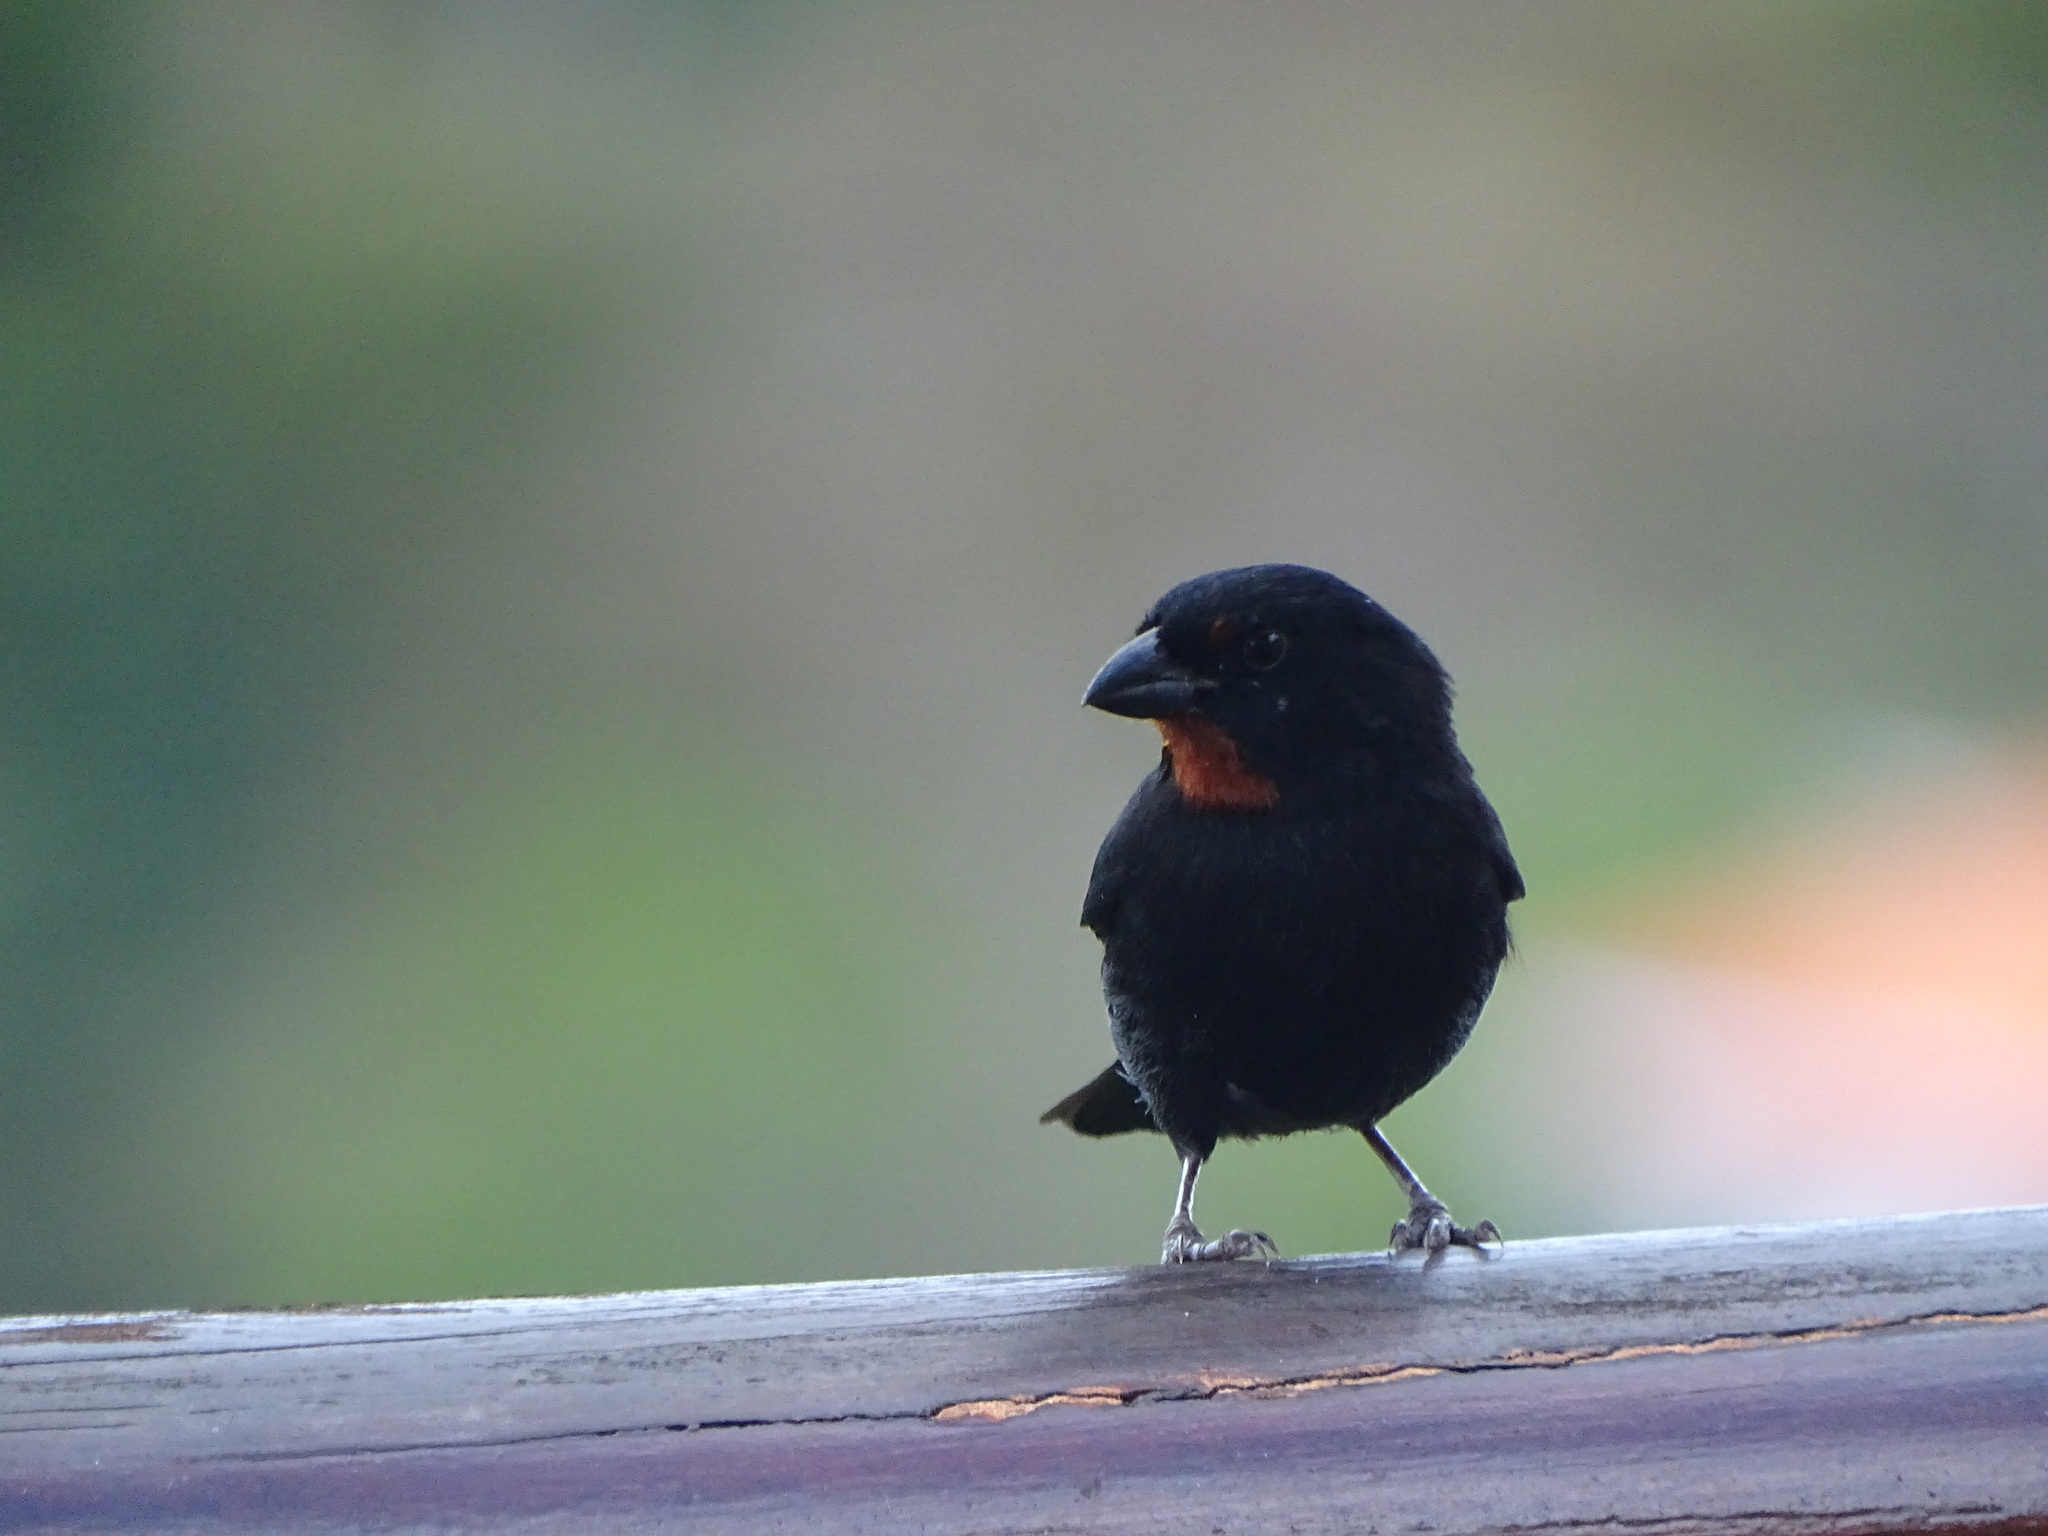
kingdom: Animalia
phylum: Chordata
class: Aves
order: Passeriformes
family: Thraupidae
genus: Loxigilla
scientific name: Loxigilla noctis
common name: Lesser antillean bullfinch
